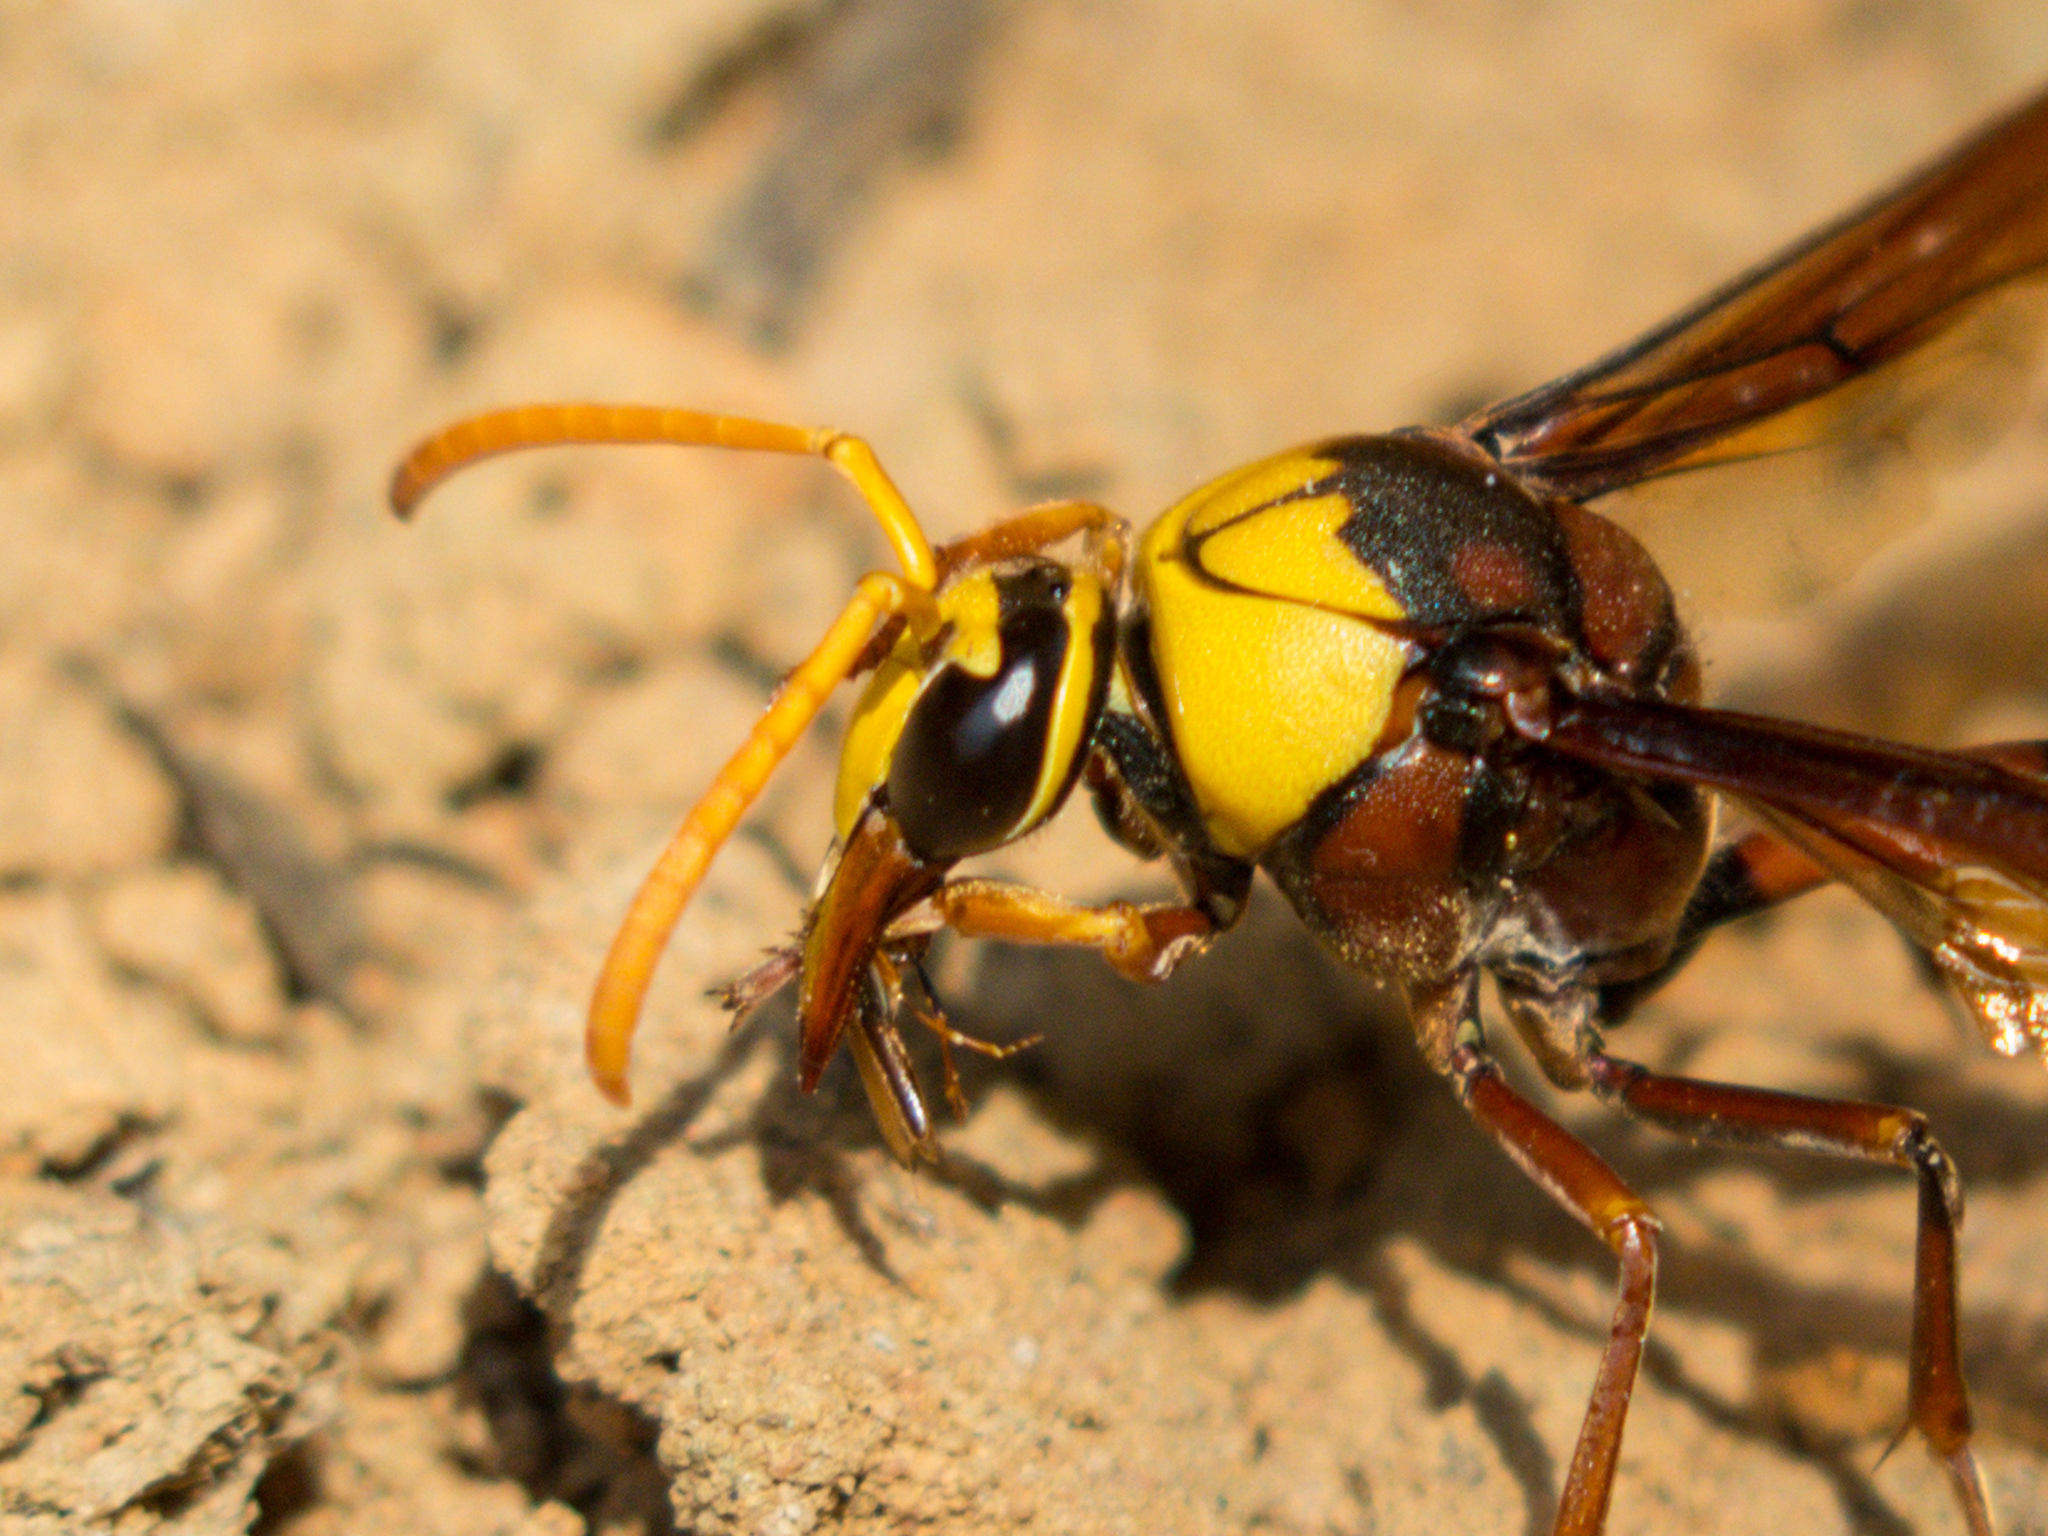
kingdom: Animalia
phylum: Arthropoda
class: Insecta
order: Hymenoptera
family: Eumenidae
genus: Delta
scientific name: Delta pyriforme
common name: Wasp
